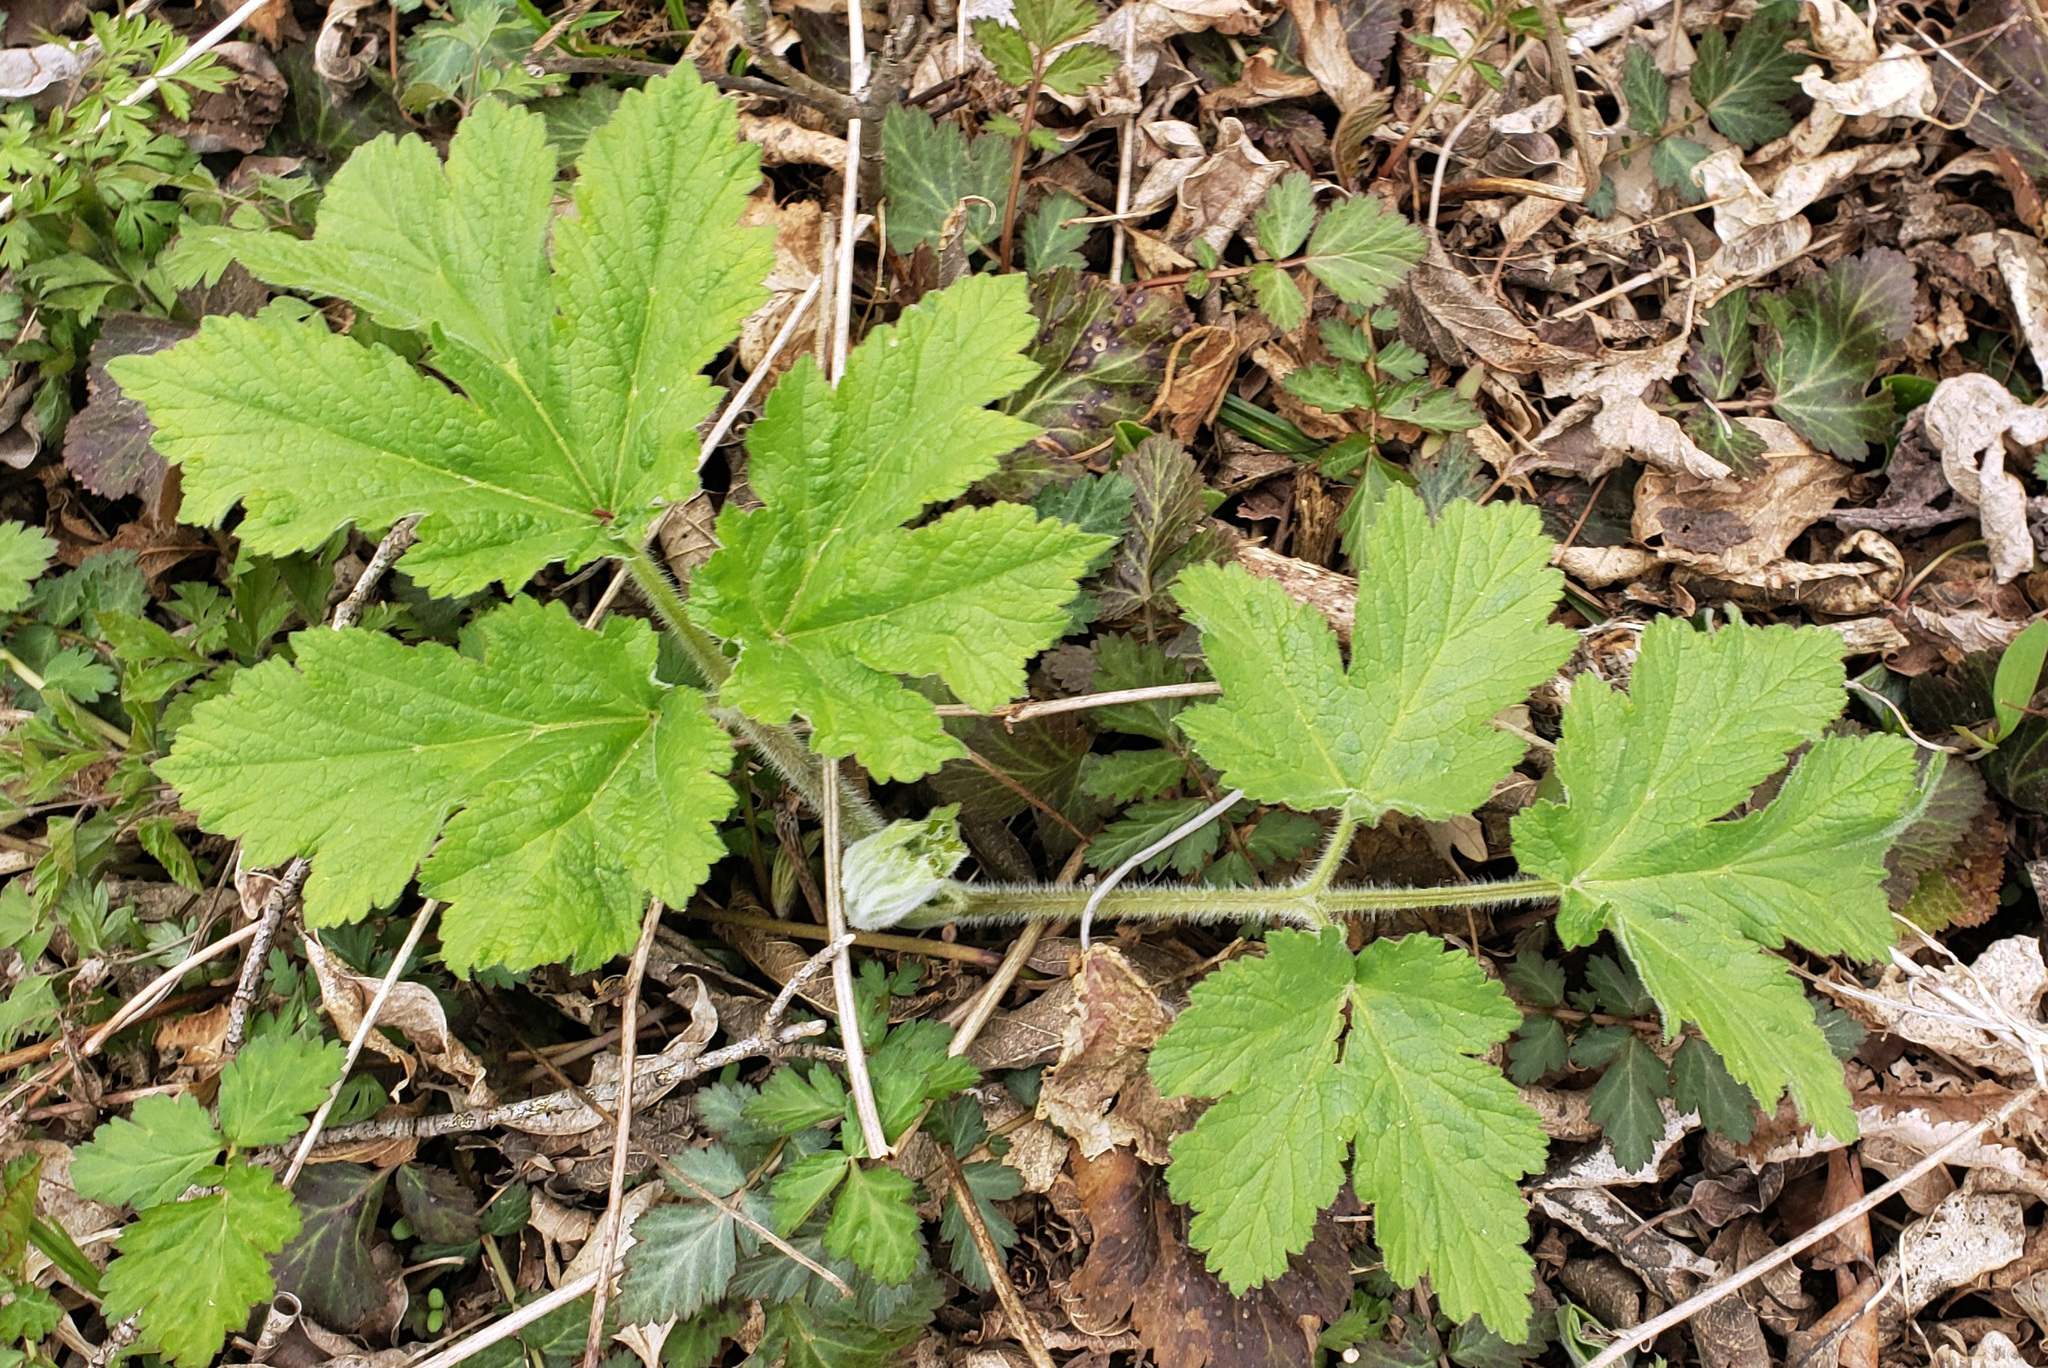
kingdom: Plantae
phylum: Tracheophyta
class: Magnoliopsida
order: Apiales
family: Apiaceae
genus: Heracleum
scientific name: Heracleum maximum
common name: American cow parsnip
